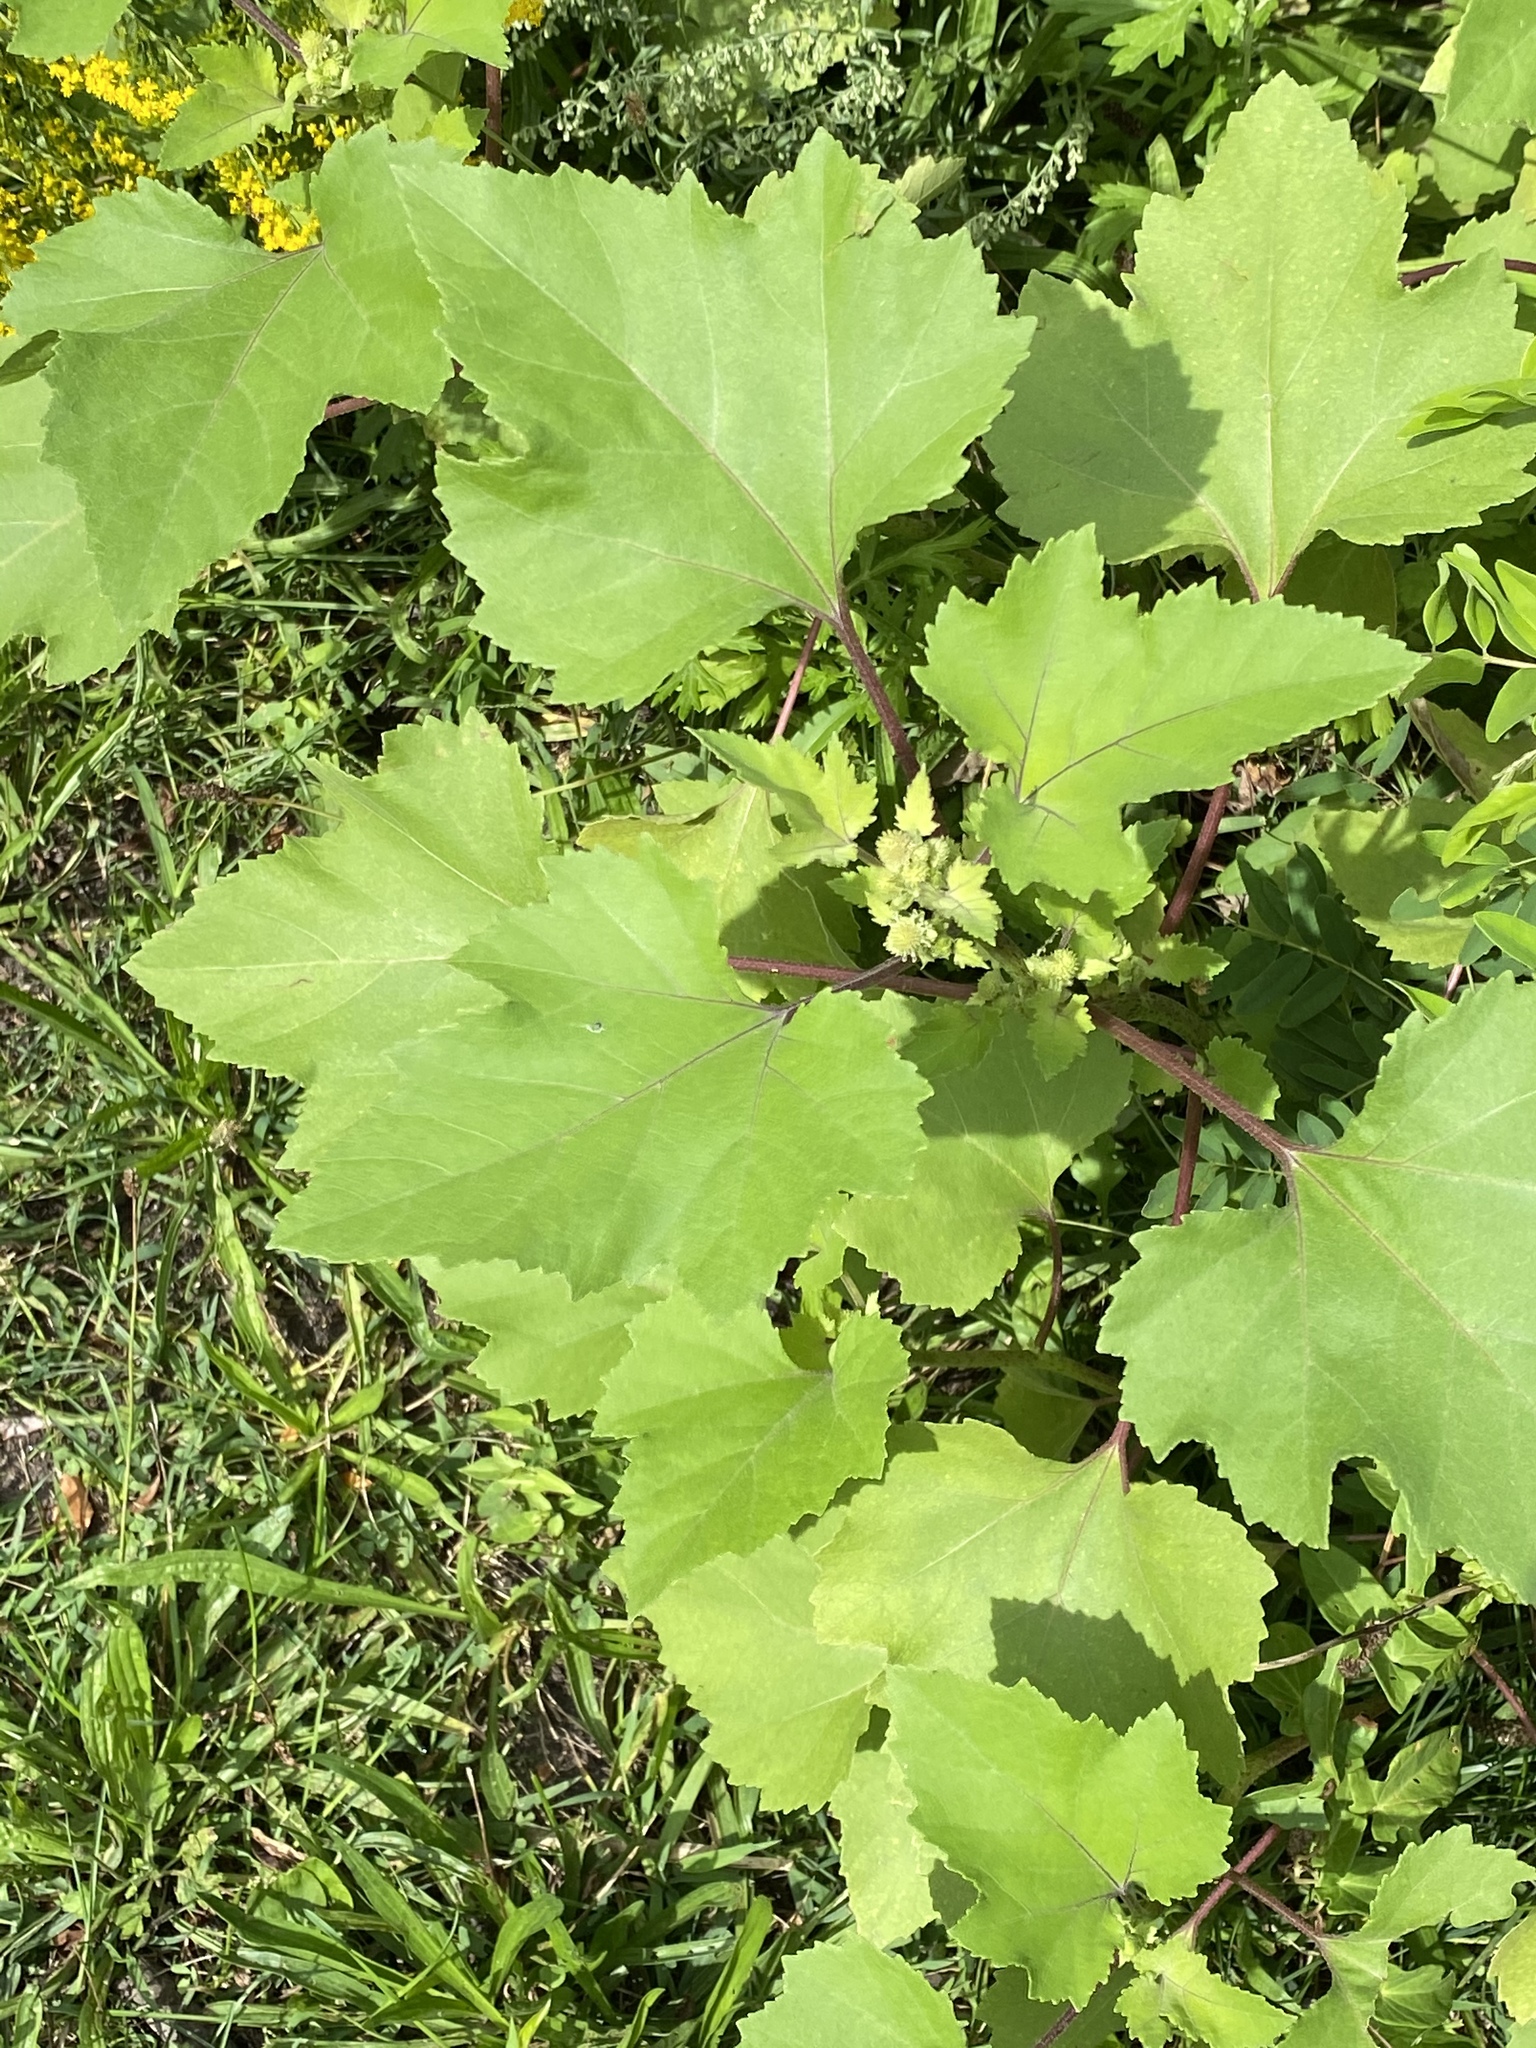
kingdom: Plantae
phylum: Tracheophyta
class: Magnoliopsida
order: Asterales
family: Asteraceae
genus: Xanthium
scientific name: Xanthium strumarium
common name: Rough cocklebur
